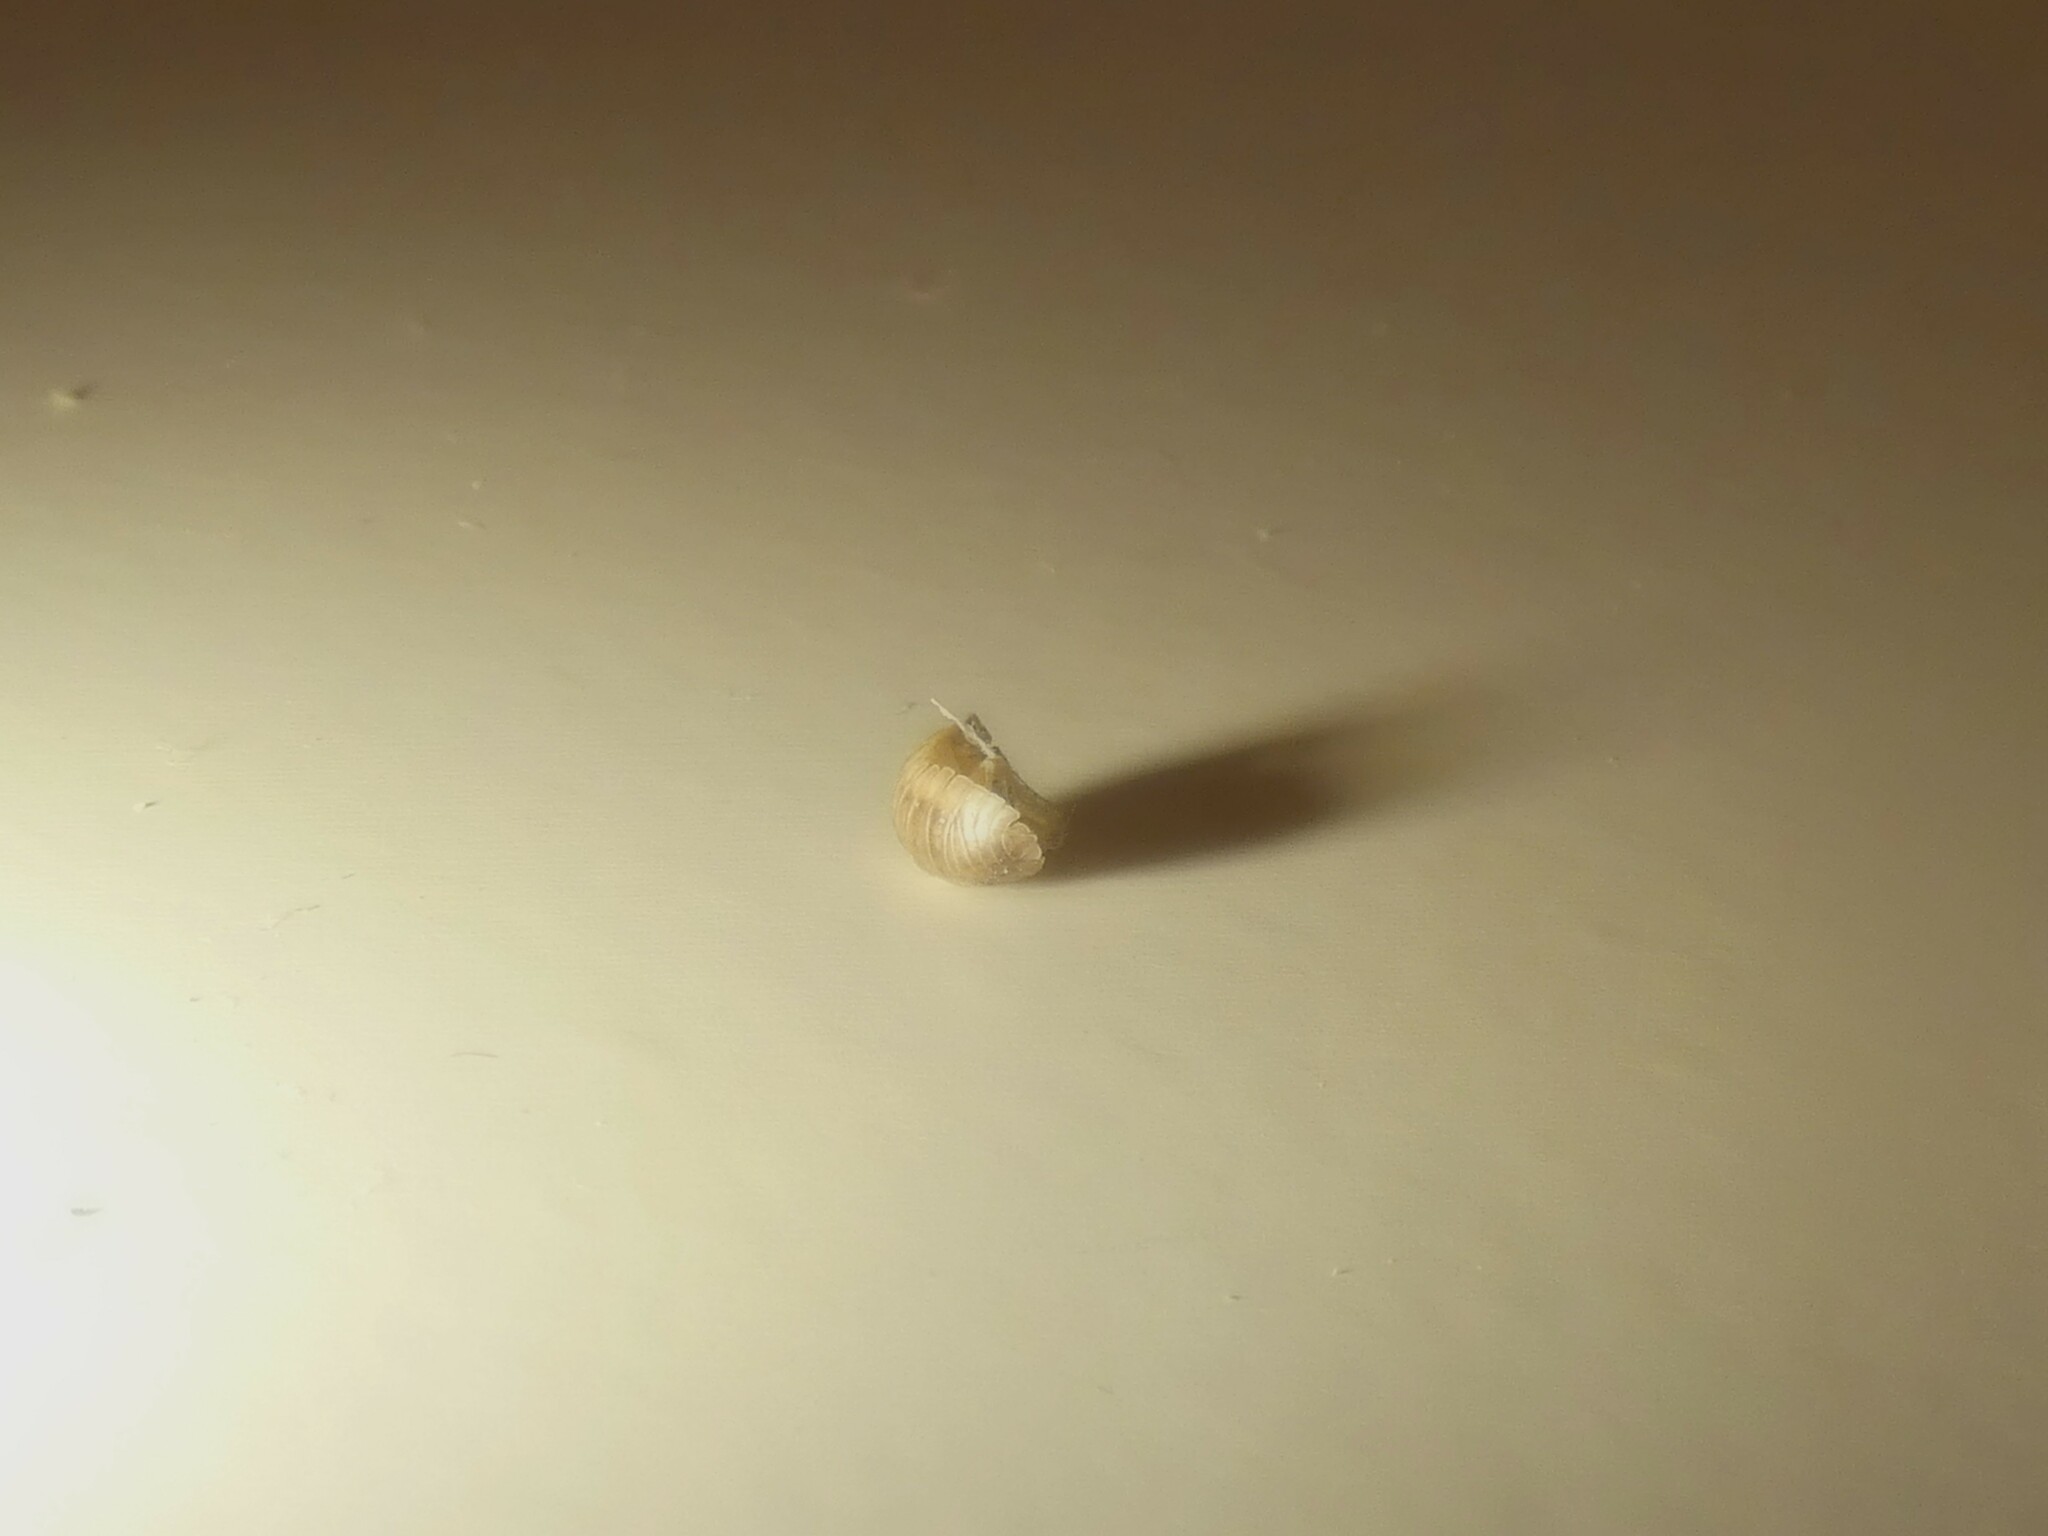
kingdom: Animalia
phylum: Arthropoda
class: Malacostraca
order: Isopoda
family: Armadillidiidae
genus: Armadillidium
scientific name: Armadillidium nasatum
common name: Isopod
